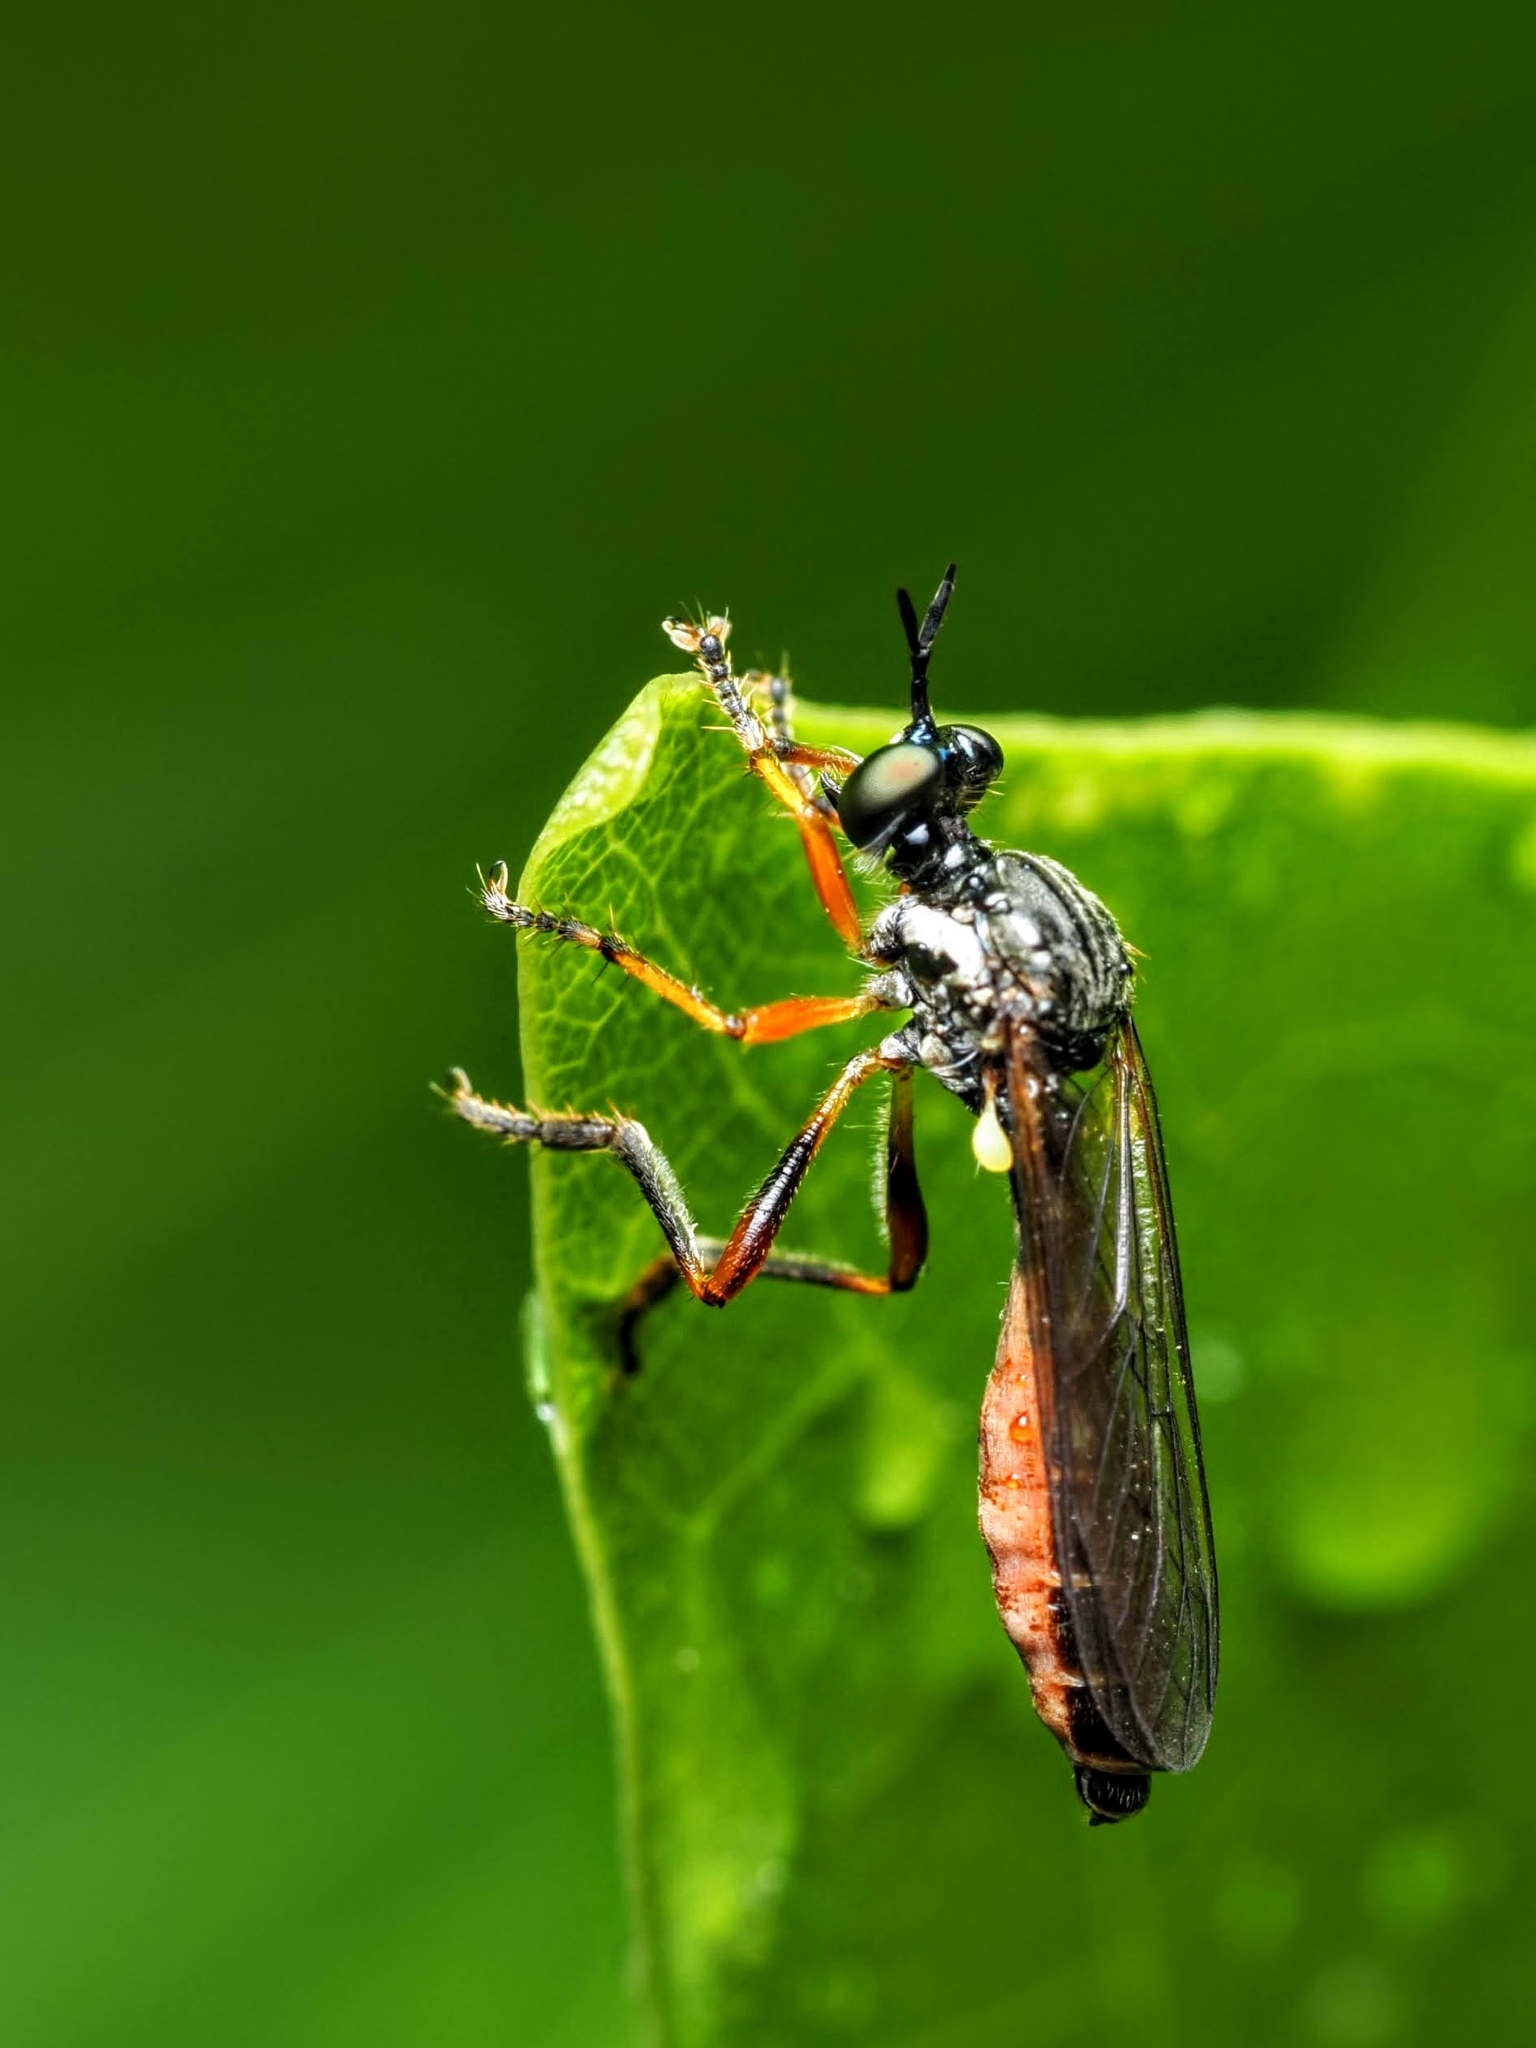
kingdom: Animalia
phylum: Arthropoda
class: Insecta
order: Diptera
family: Asilidae
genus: Dioctria
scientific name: Dioctria hyalipennis
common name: Stripe-legged robberfly
